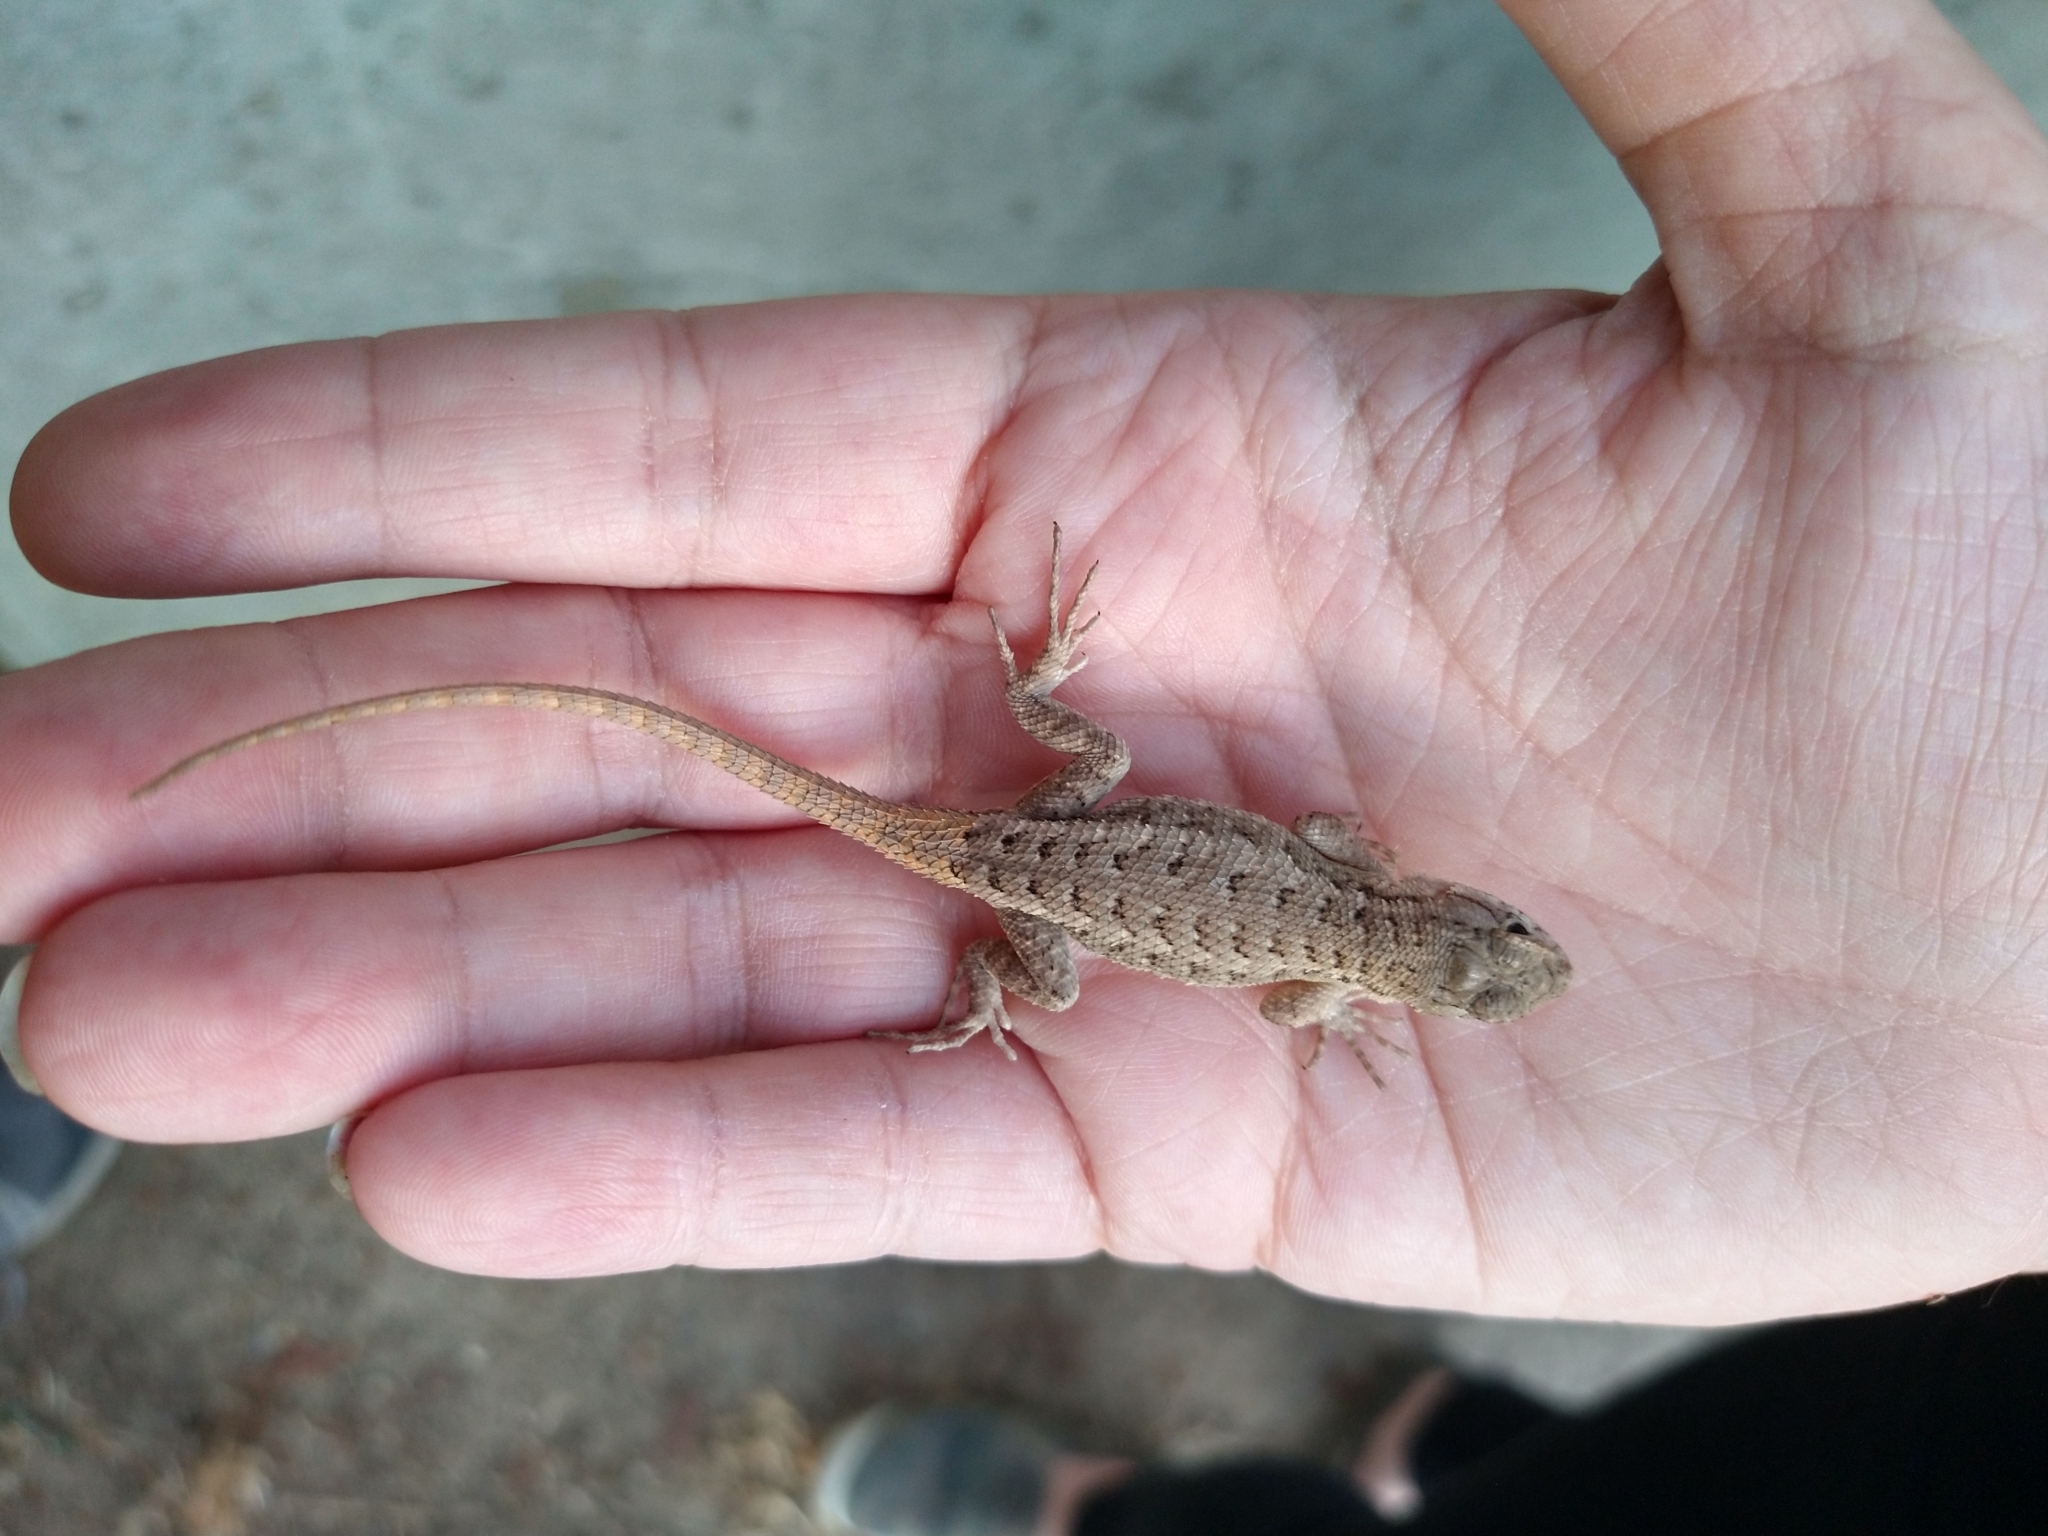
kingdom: Animalia
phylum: Chordata
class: Squamata
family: Phrynosomatidae
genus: Sceloporus
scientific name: Sceloporus occidentalis
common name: Western fence lizard
